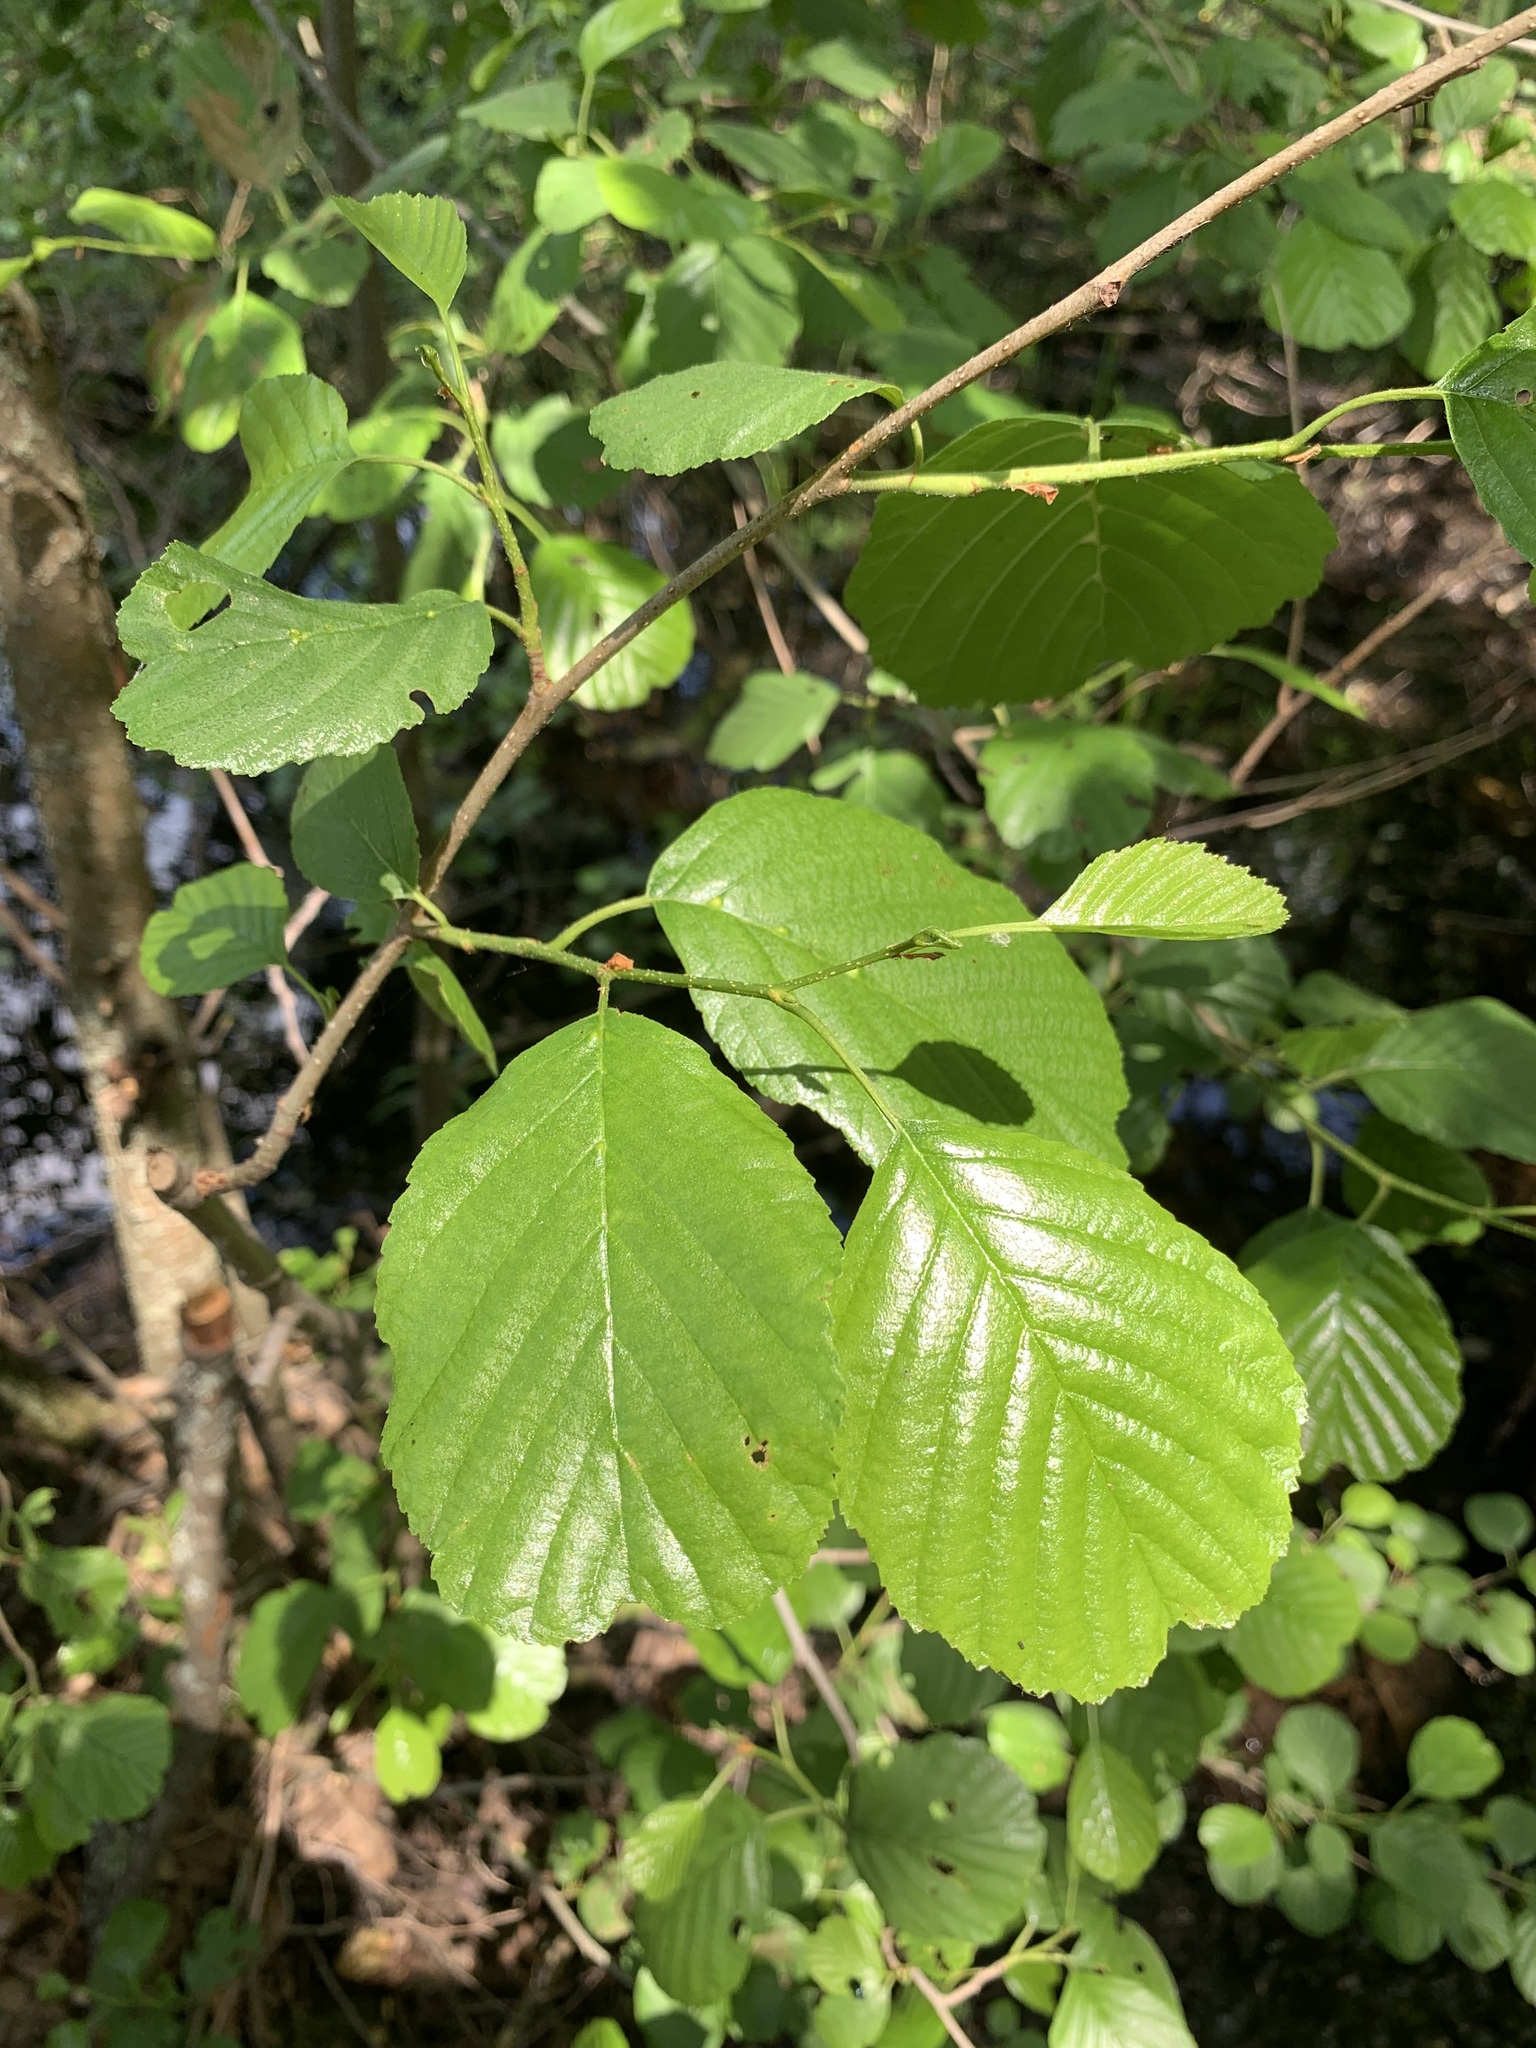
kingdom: Plantae
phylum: Tracheophyta
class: Magnoliopsida
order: Fagales
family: Betulaceae
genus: Alnus
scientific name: Alnus glutinosa
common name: Black alder
